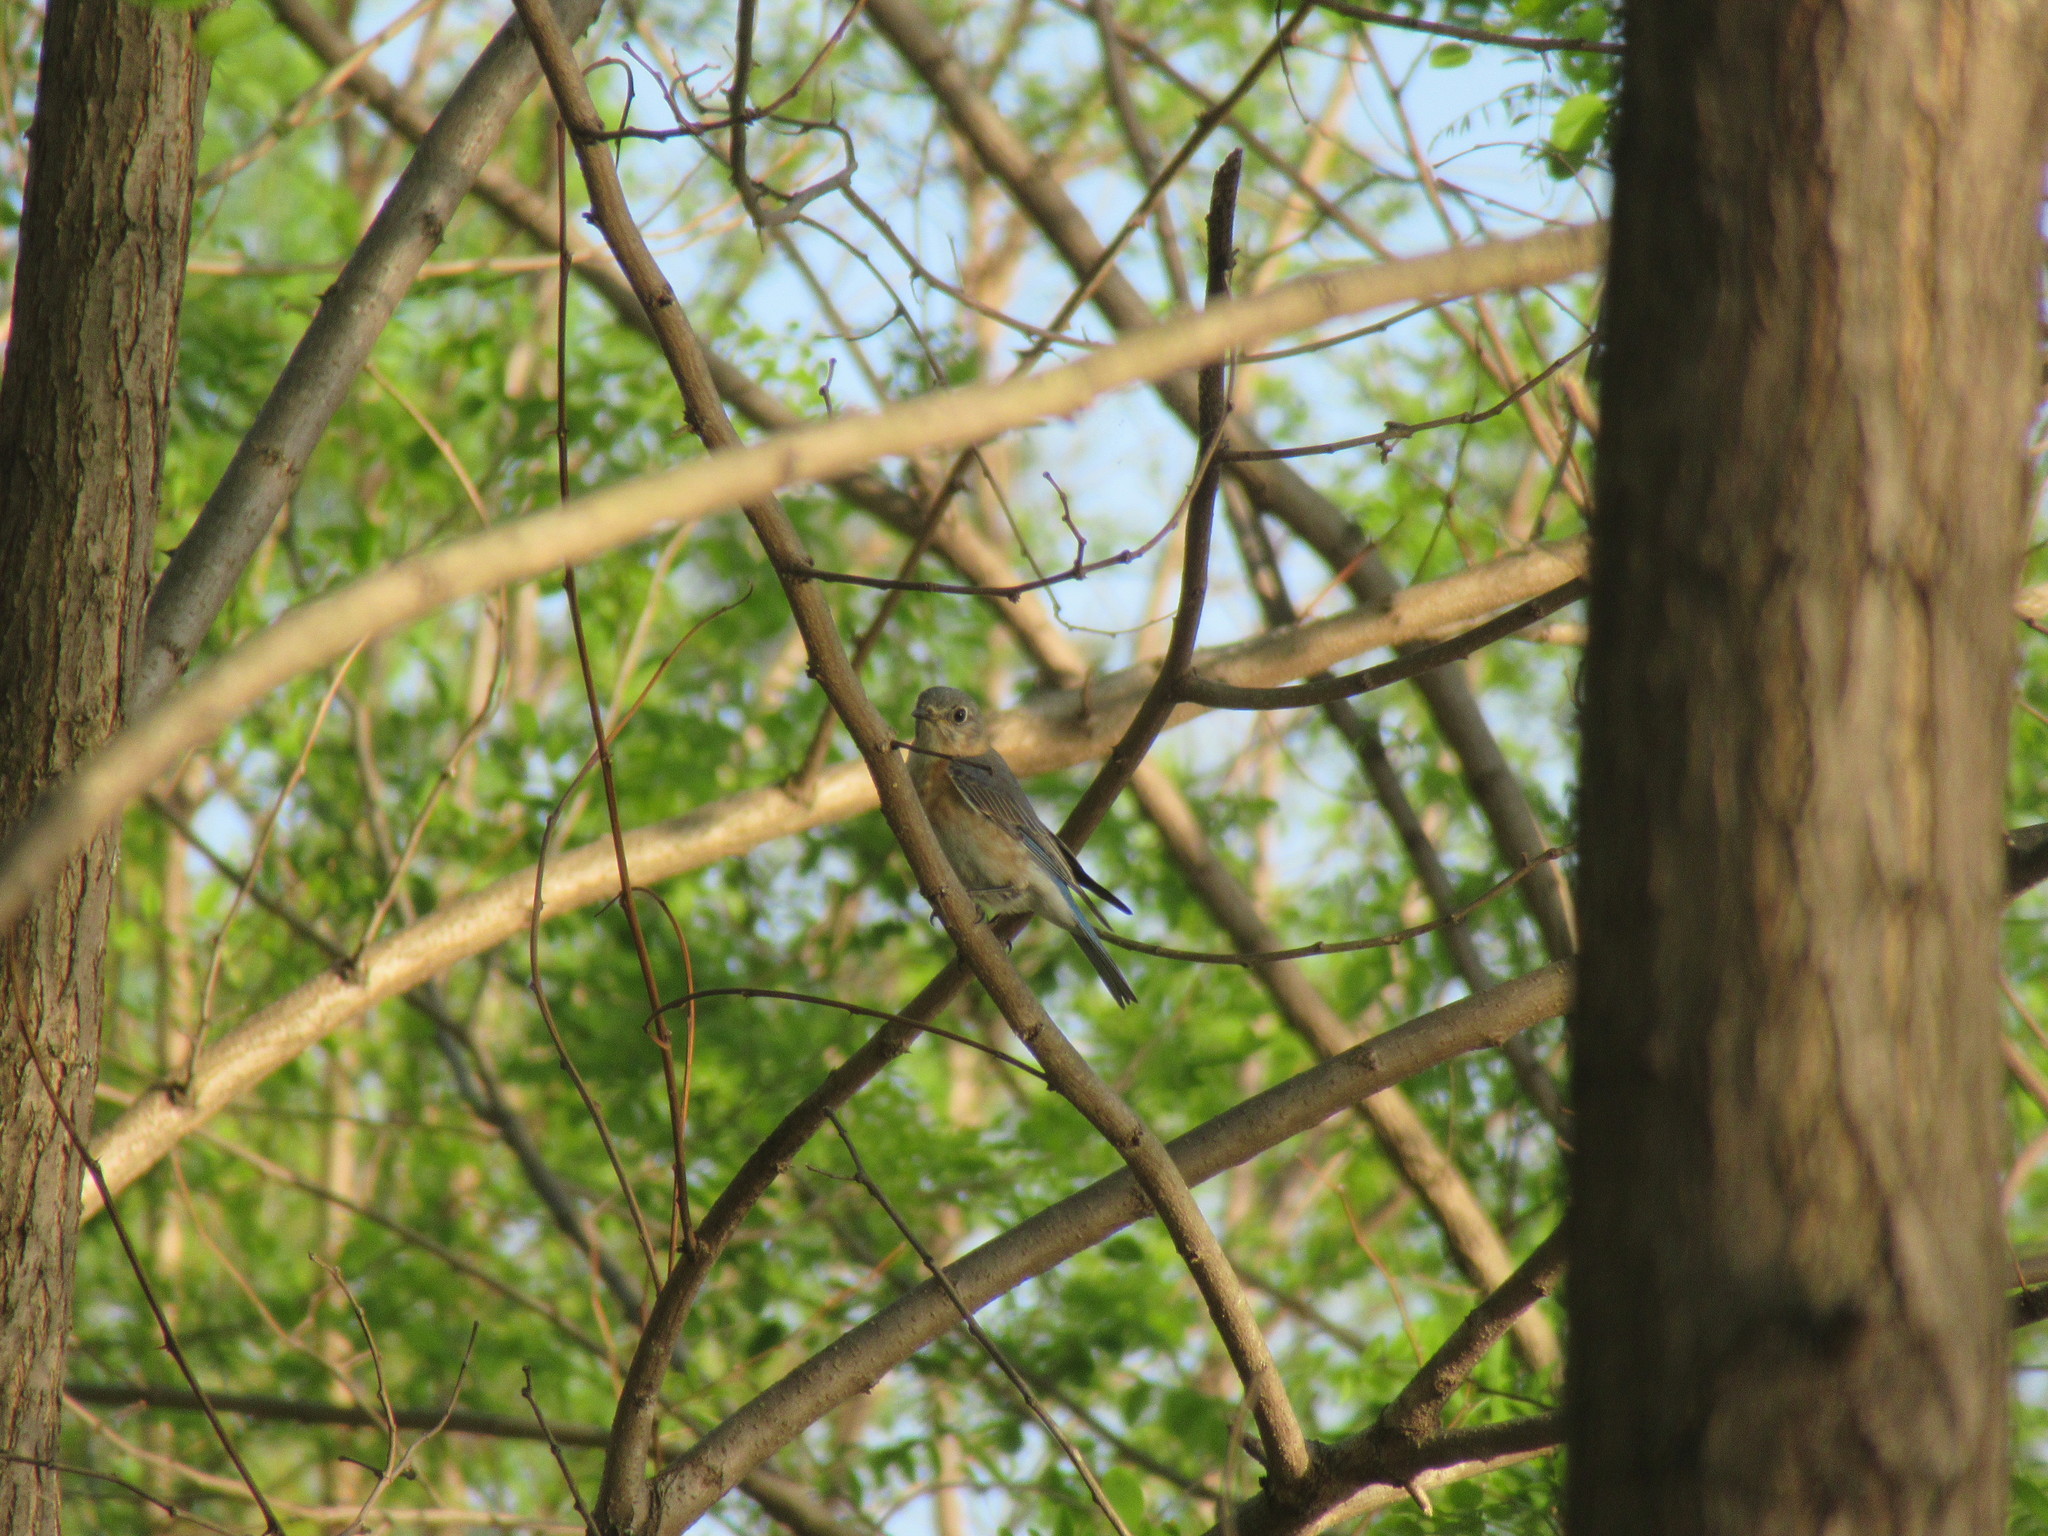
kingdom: Animalia
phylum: Chordata
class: Aves
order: Passeriformes
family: Turdidae
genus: Sialia
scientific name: Sialia sialis
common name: Eastern bluebird
